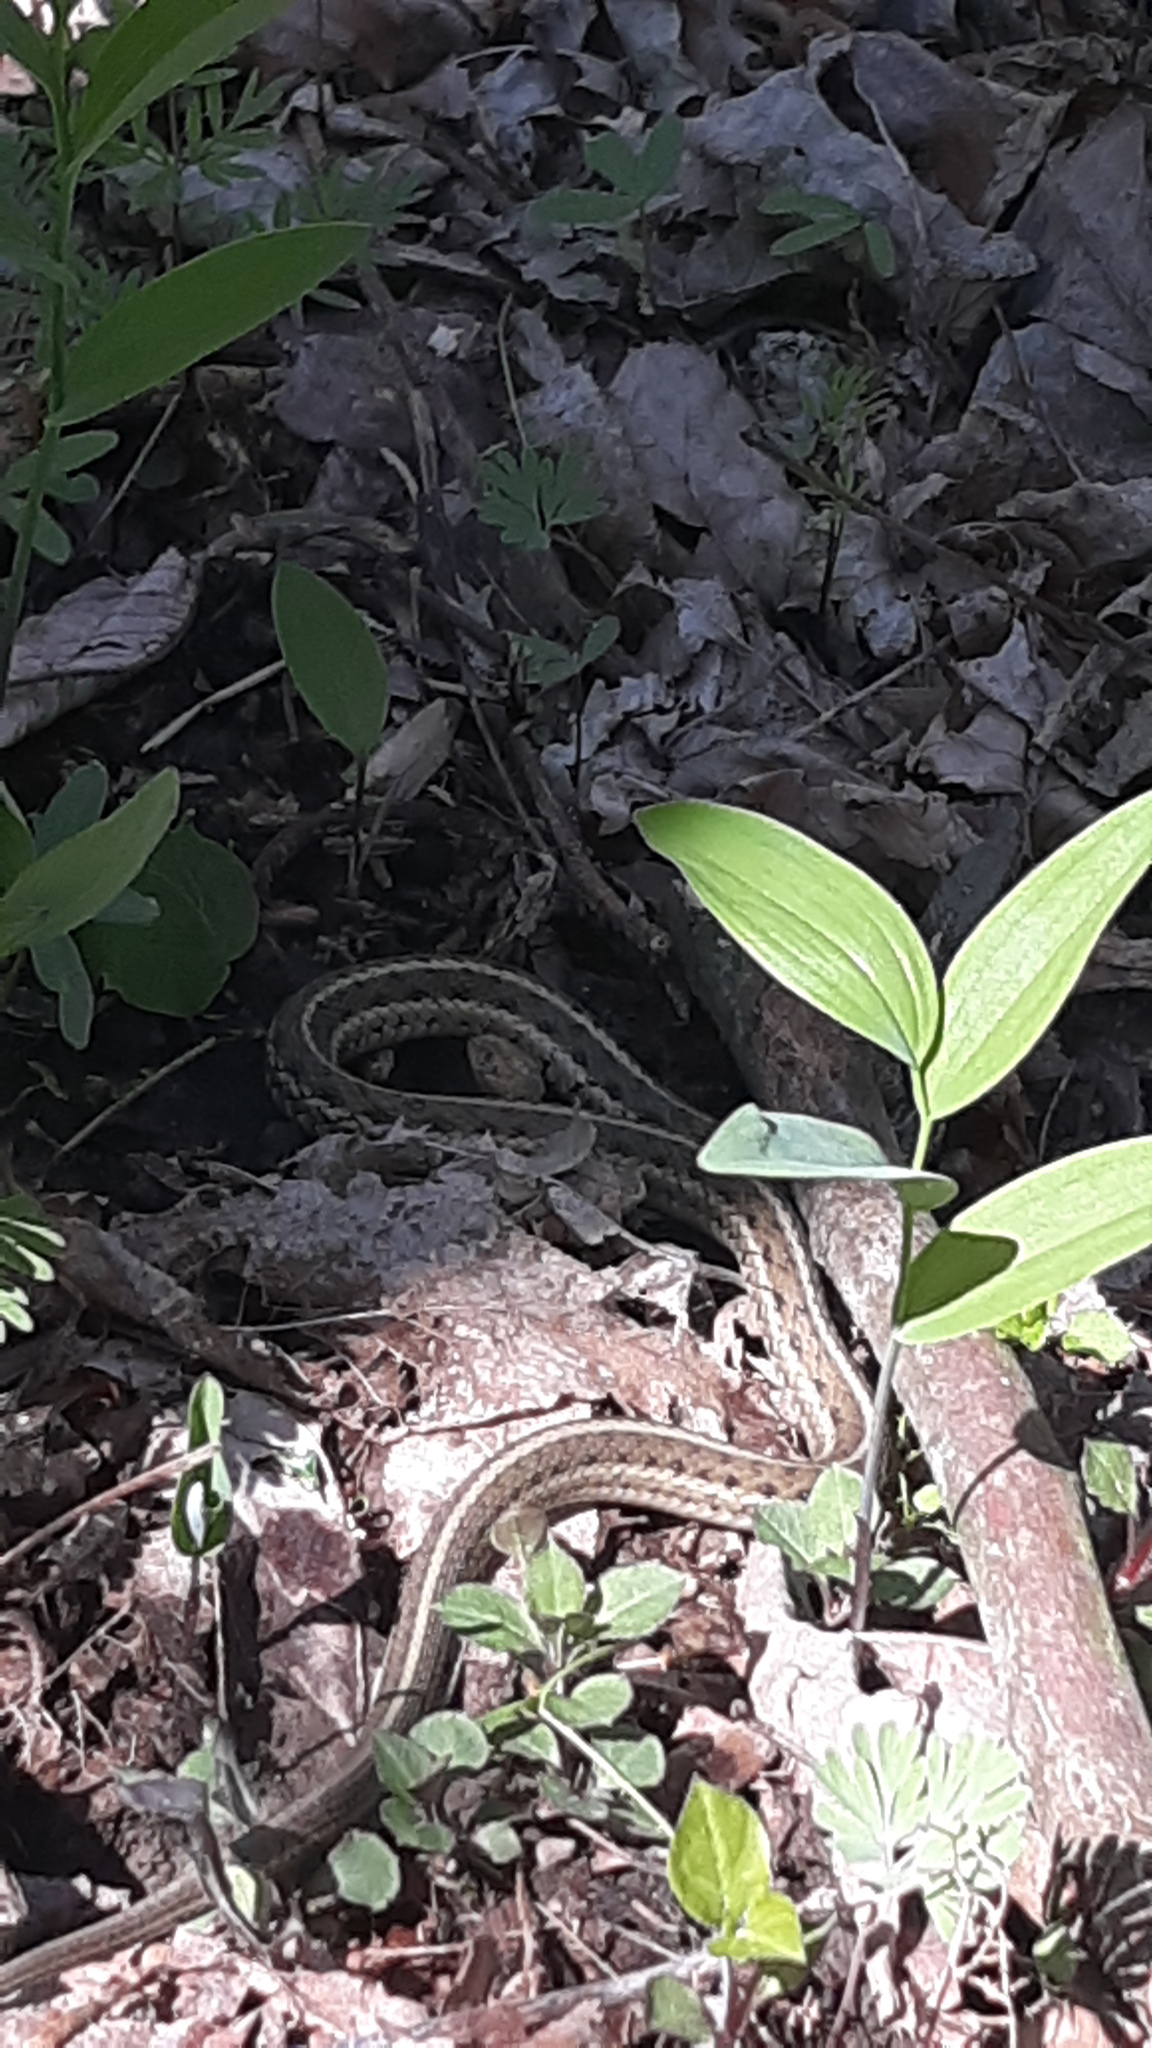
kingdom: Animalia
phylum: Chordata
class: Squamata
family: Colubridae
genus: Thamnophis
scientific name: Thamnophis sirtalis
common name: Common garter snake
